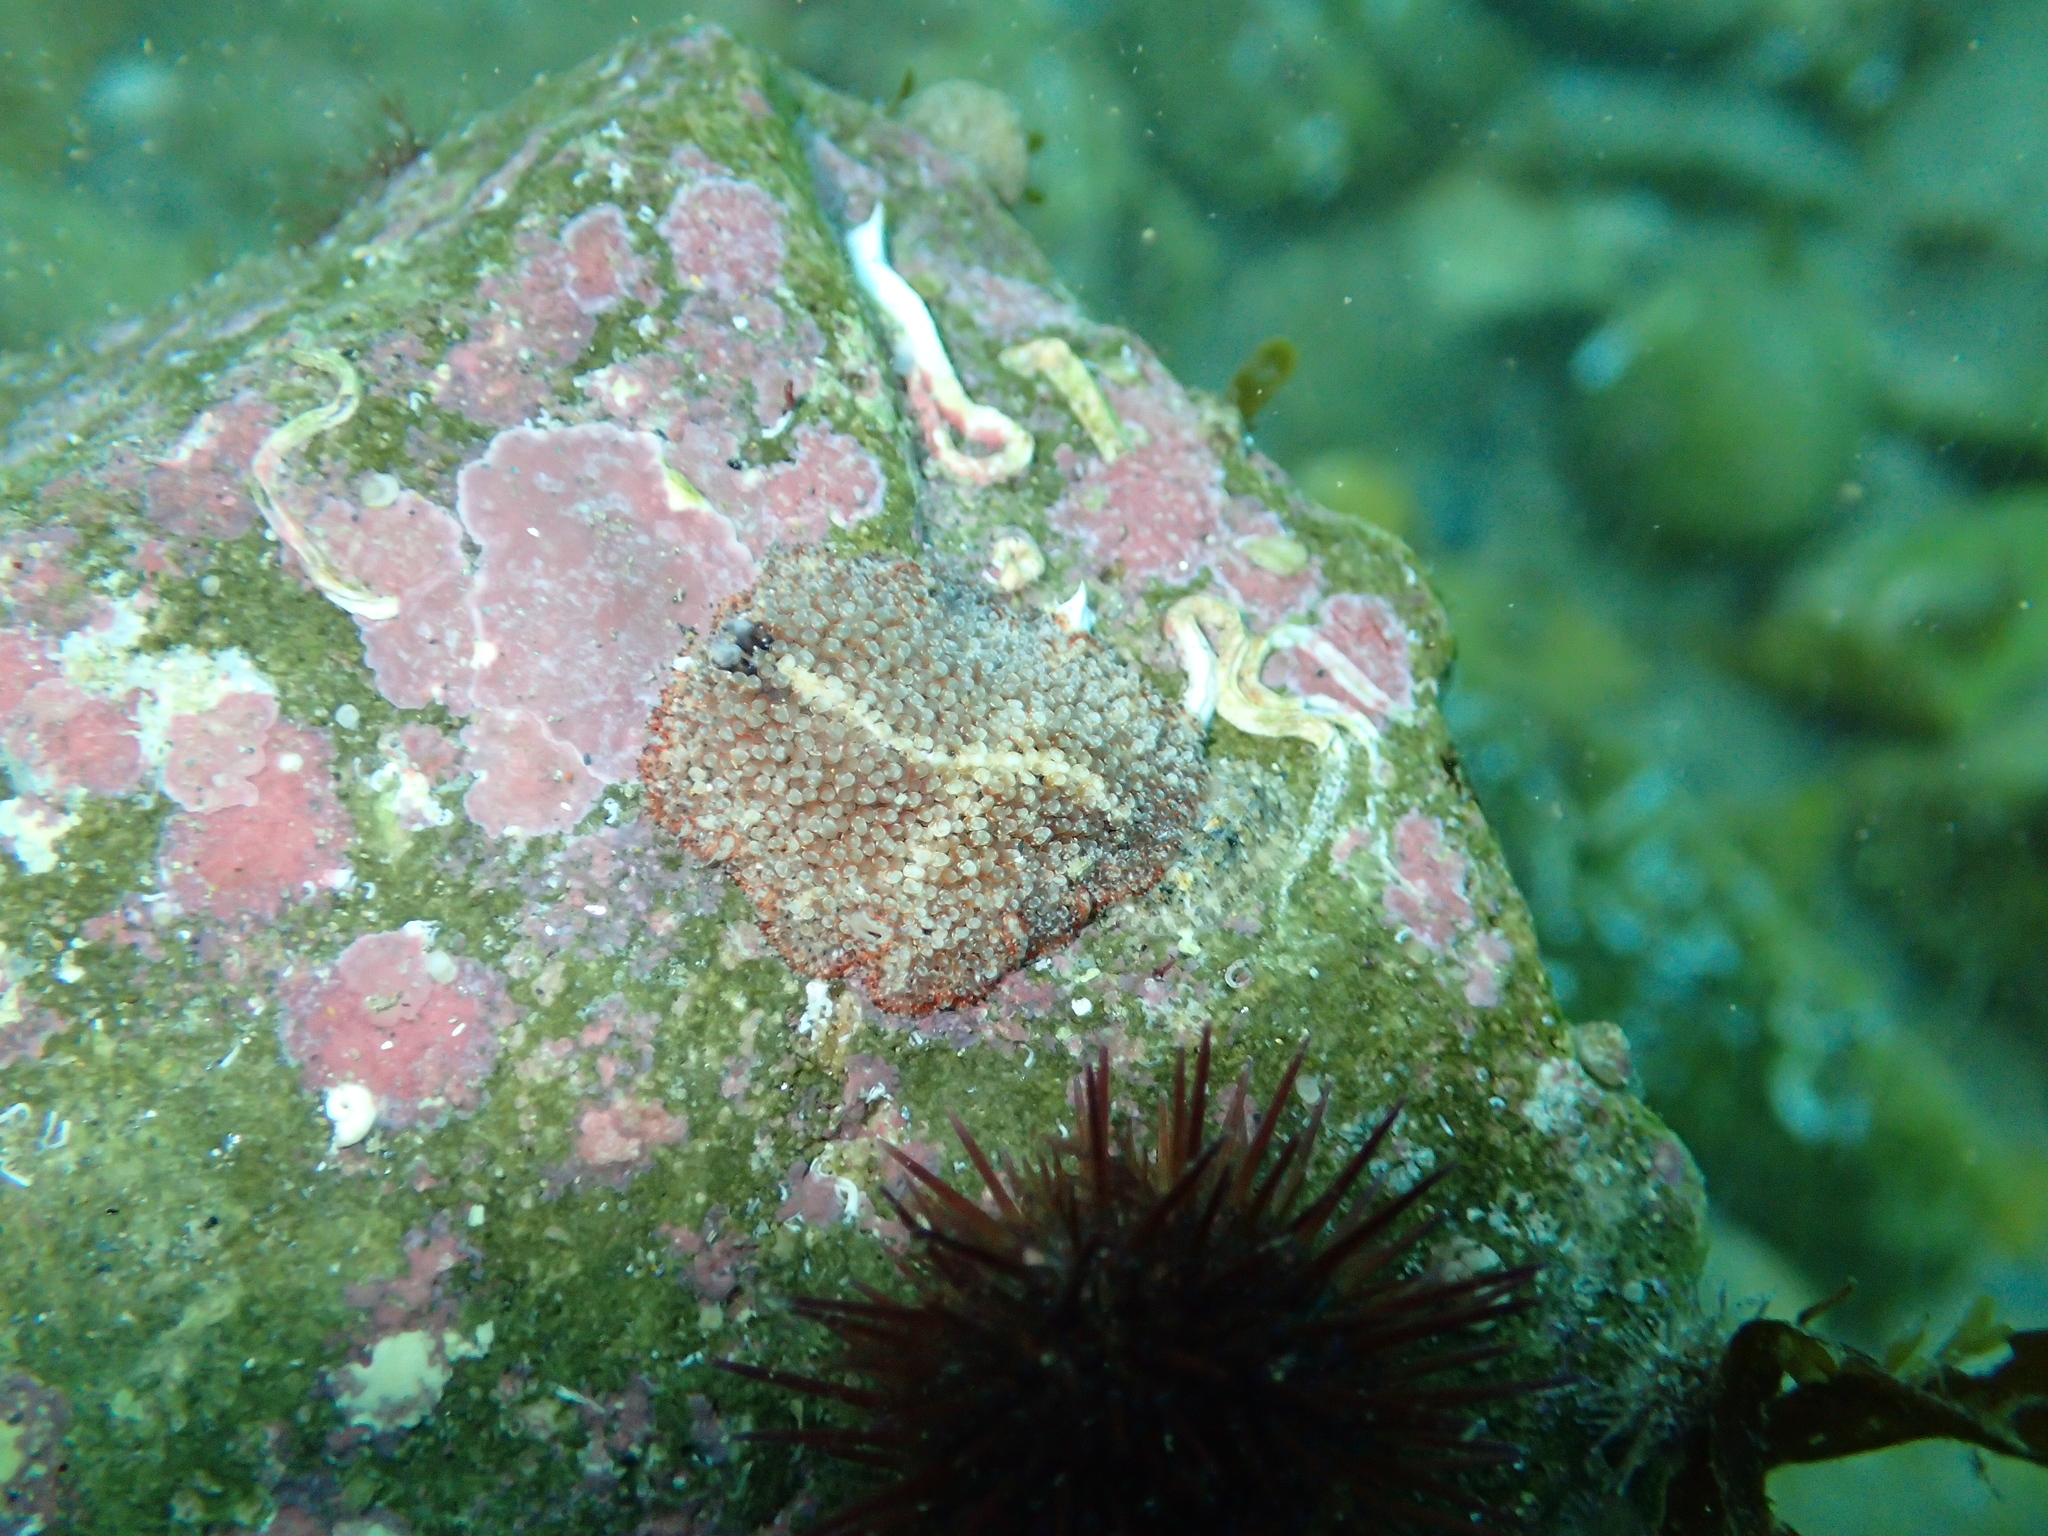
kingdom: Animalia
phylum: Platyhelminthes
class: Turbellaria
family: Pseudocerotidae
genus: Thysanozoon
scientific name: Thysanozoon brocchii
